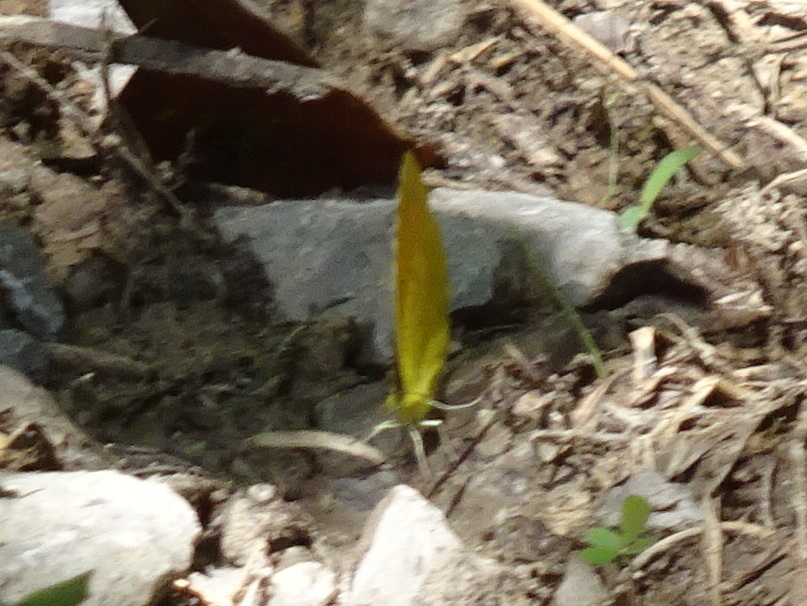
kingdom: Animalia
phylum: Arthropoda
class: Insecta
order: Lepidoptera
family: Pieridae
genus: Abaeis
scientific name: Abaeis nicippe
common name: Sleepy orange
